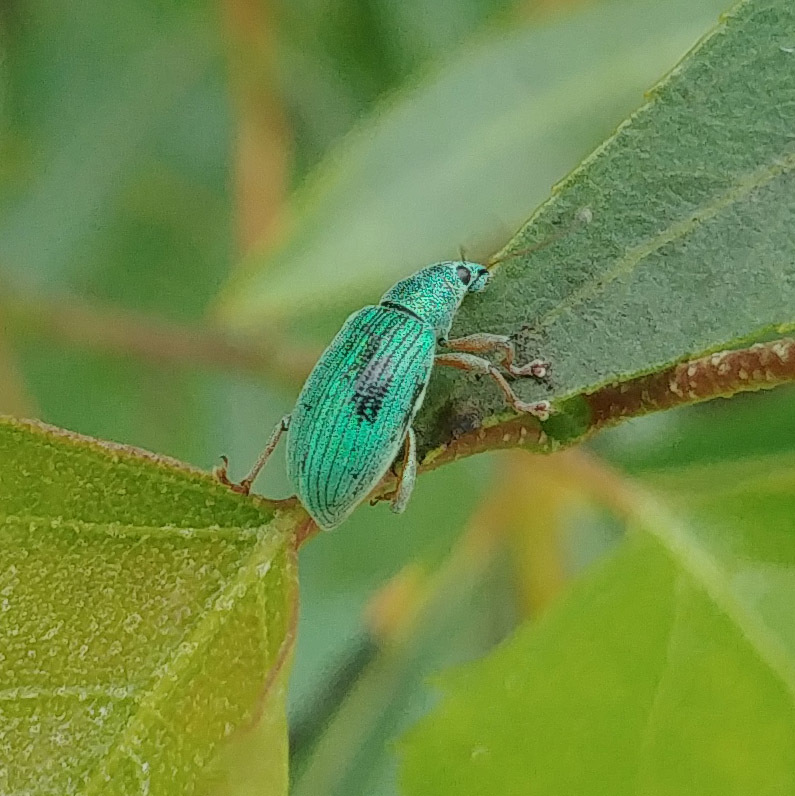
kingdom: Animalia
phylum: Arthropoda
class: Insecta
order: Coleoptera
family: Curculionidae
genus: Polydrusus
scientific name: Polydrusus formosus
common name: Weevil
